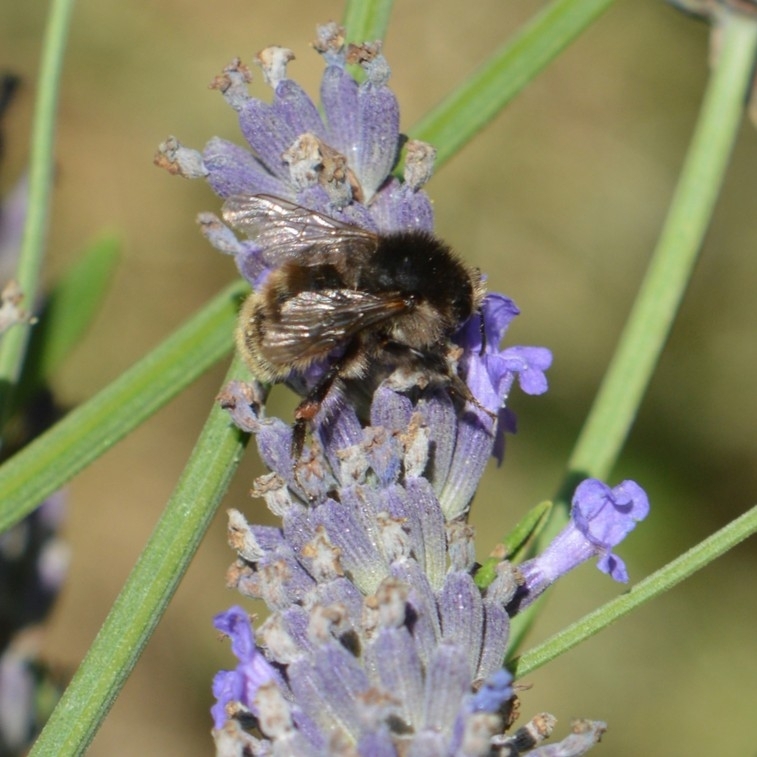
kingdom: Animalia
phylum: Arthropoda
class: Insecta
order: Hymenoptera
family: Apidae
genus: Bombus
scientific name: Bombus humilis
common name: Brown-banded carder-bee
